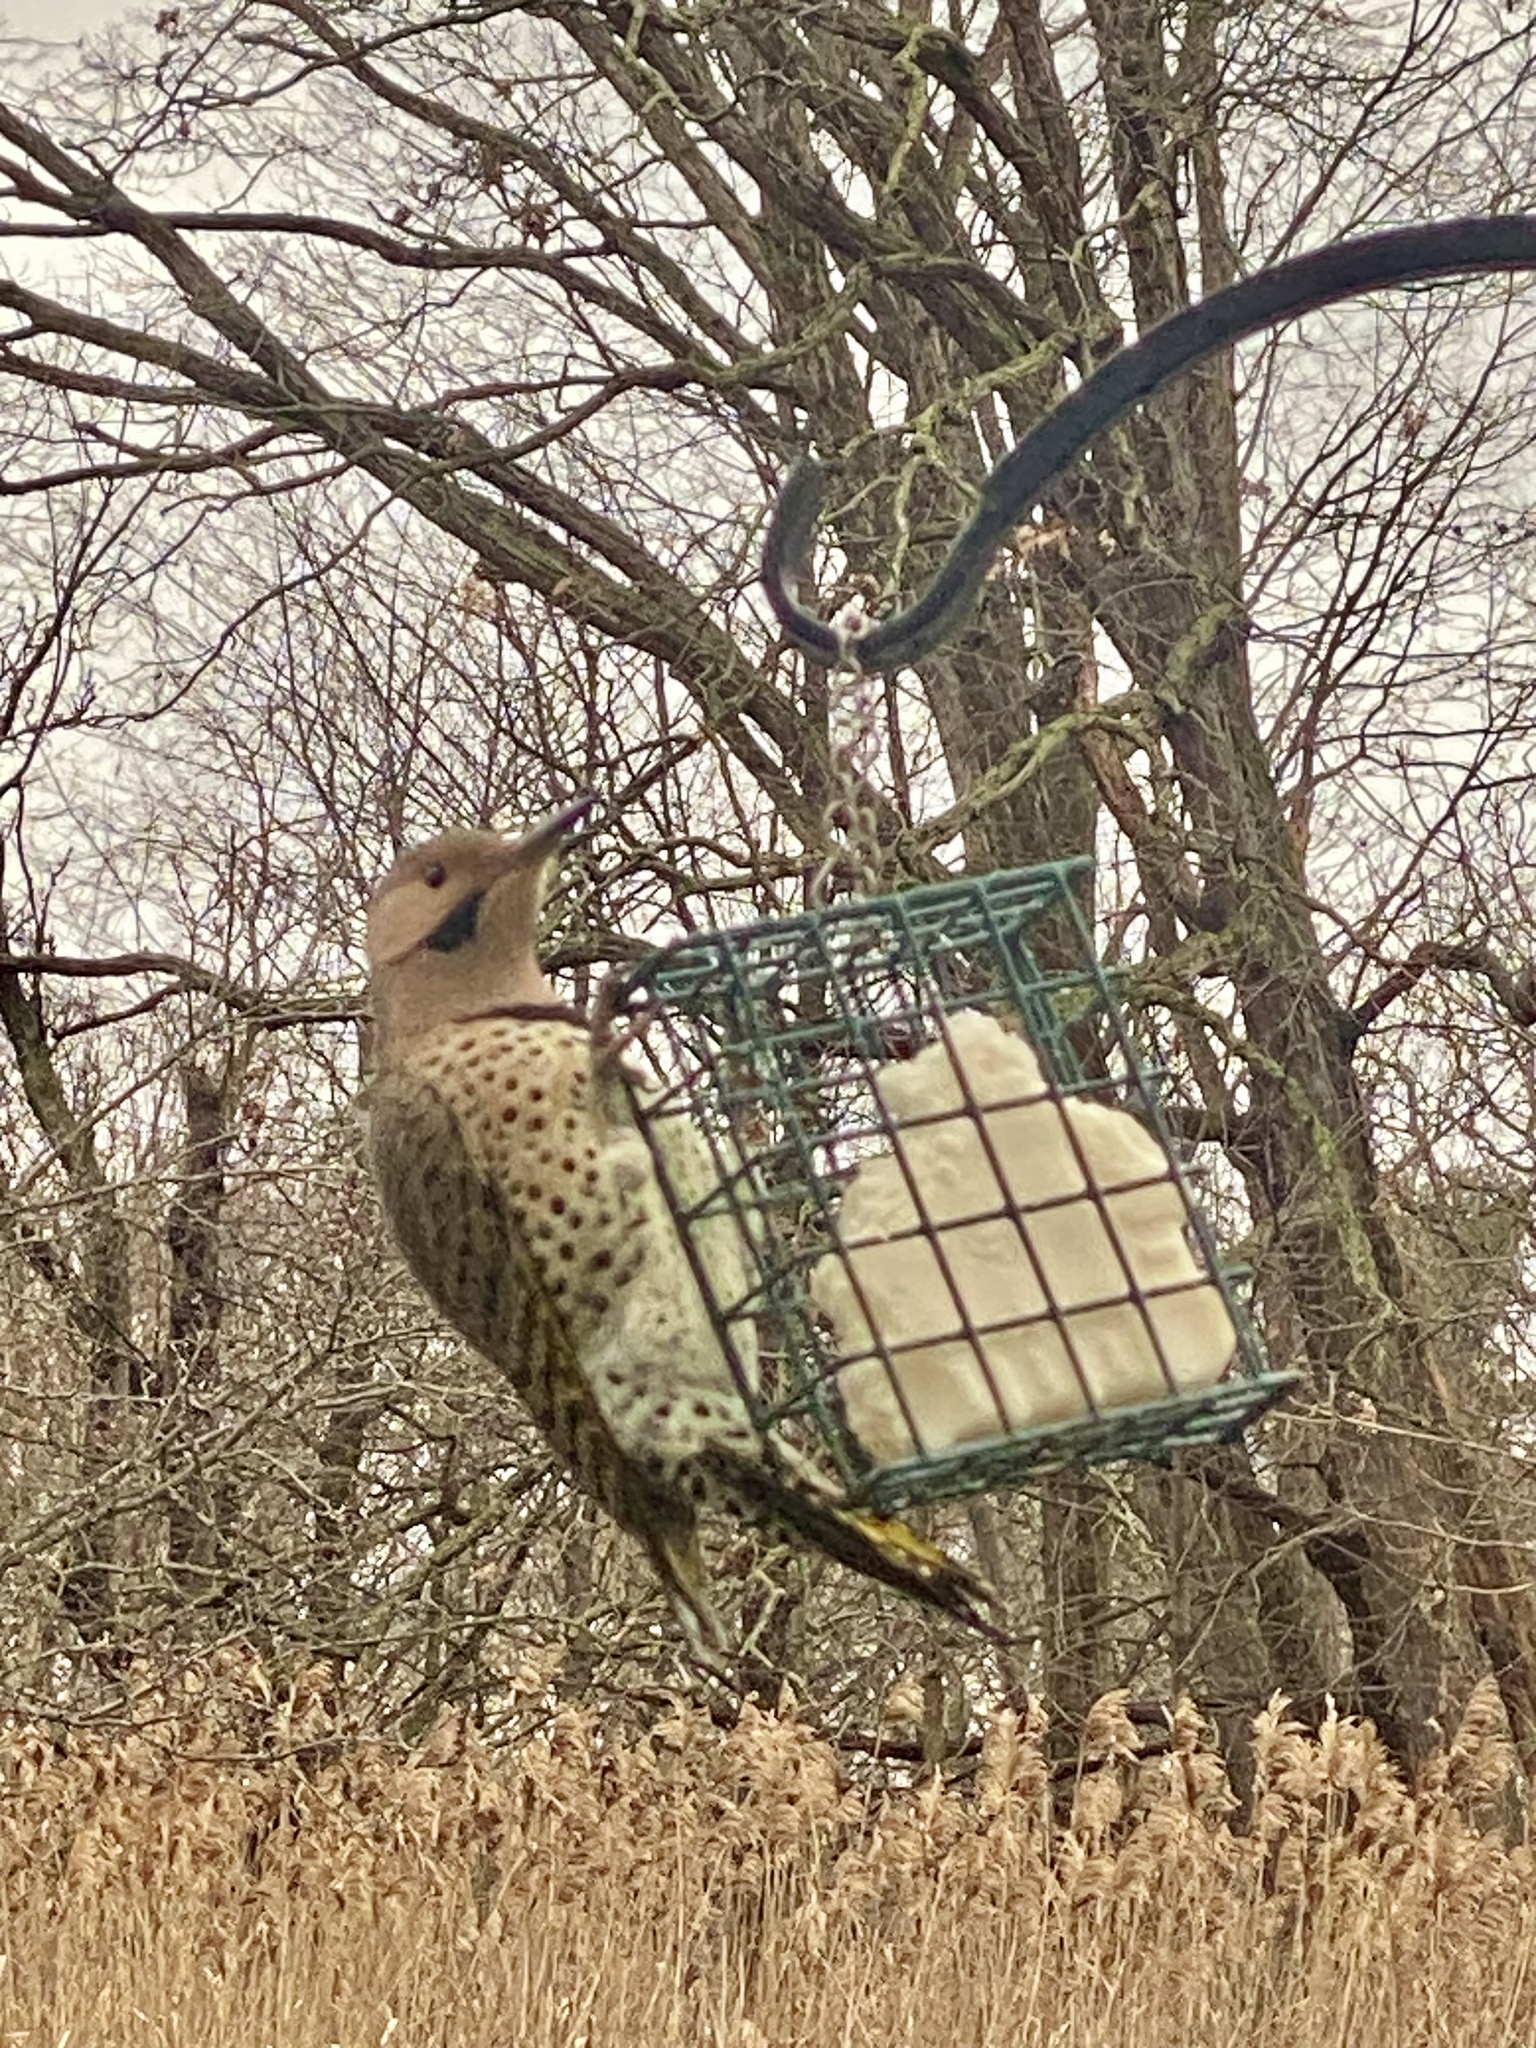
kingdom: Animalia
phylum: Chordata
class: Aves
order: Piciformes
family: Picidae
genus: Colaptes
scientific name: Colaptes auratus
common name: Northern flicker
